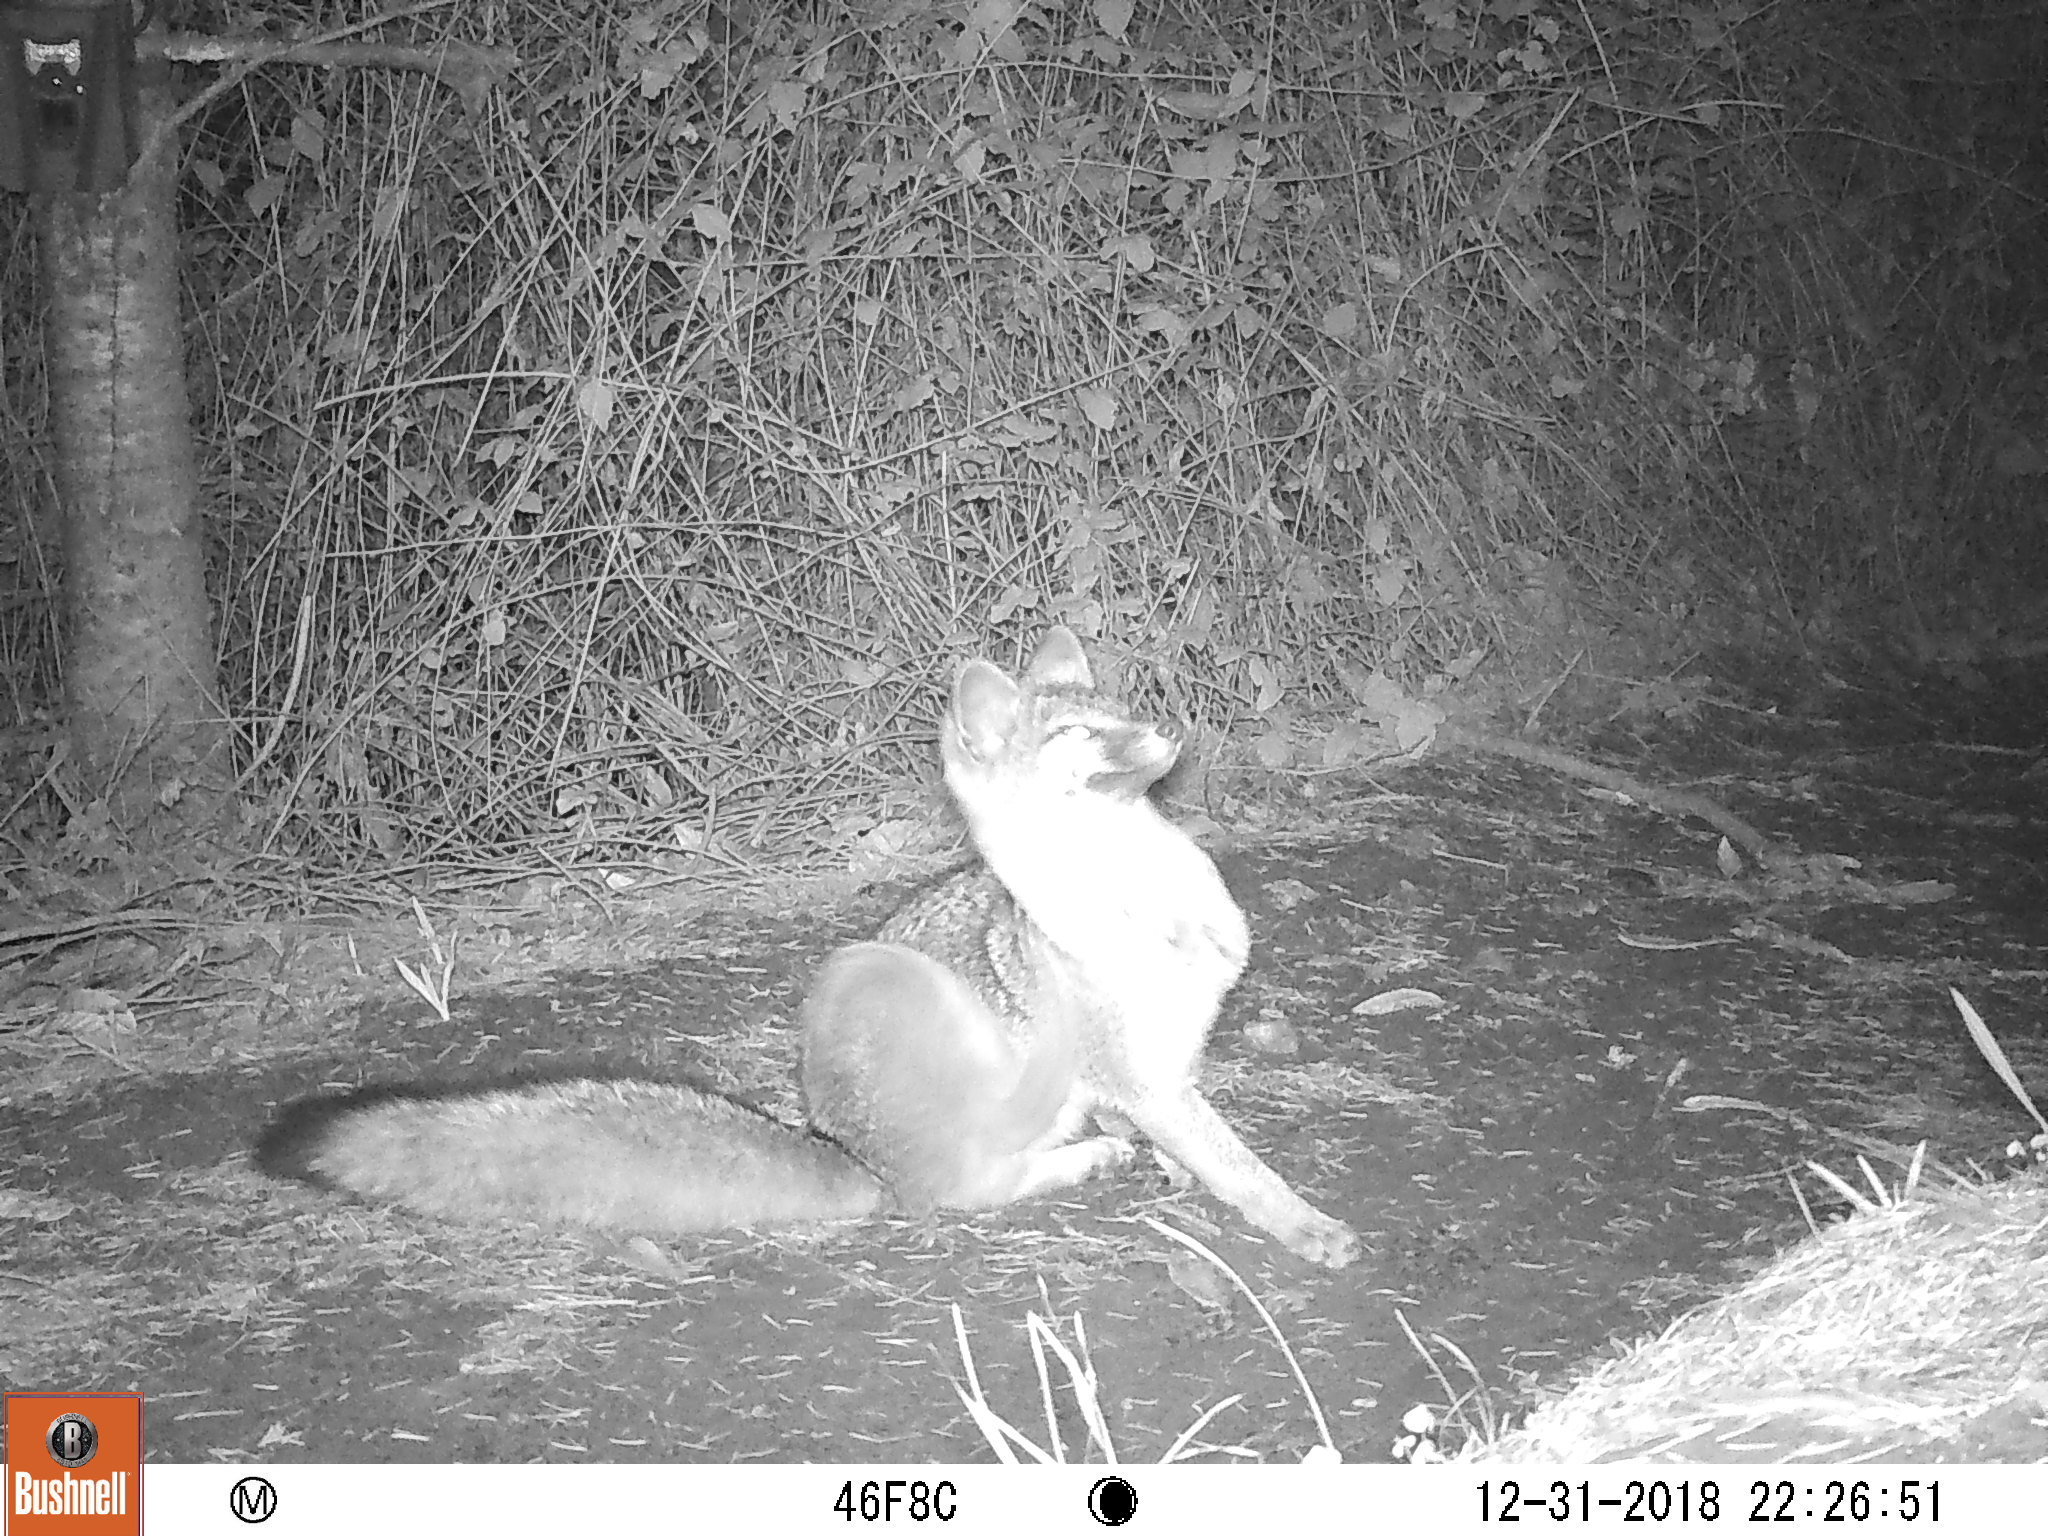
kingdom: Animalia
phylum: Chordata
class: Mammalia
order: Carnivora
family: Canidae
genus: Urocyon
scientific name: Urocyon cinereoargenteus
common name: Gray fox
